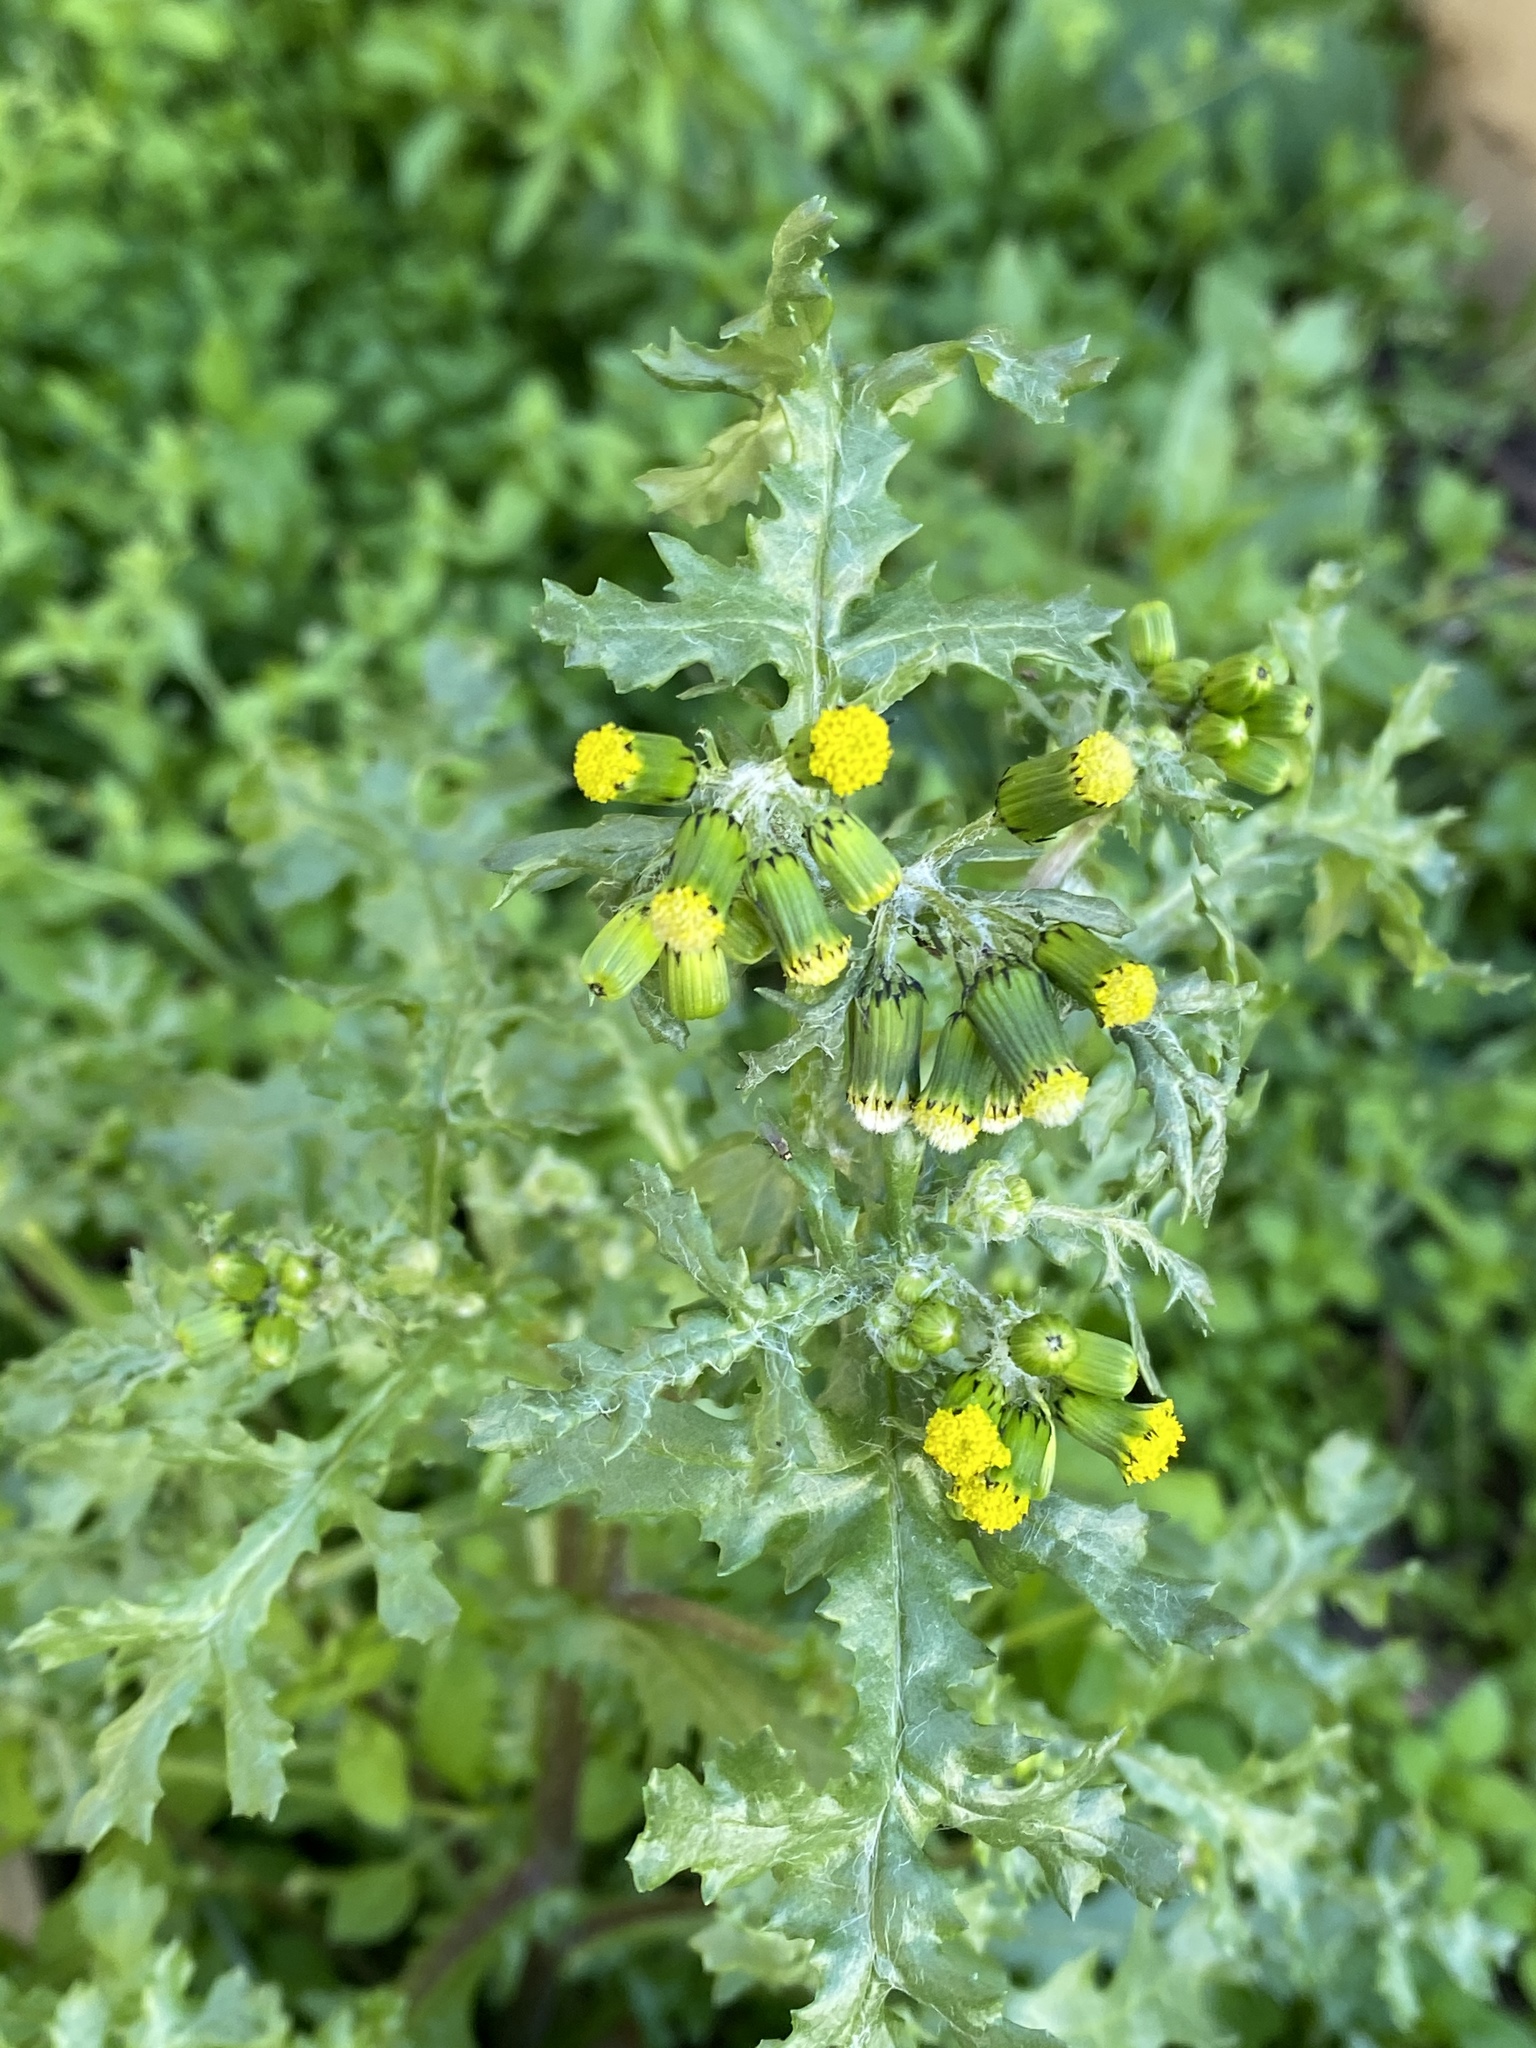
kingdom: Plantae
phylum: Tracheophyta
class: Magnoliopsida
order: Asterales
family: Asteraceae
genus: Senecio
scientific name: Senecio vulgaris
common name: Old-man-in-the-spring
